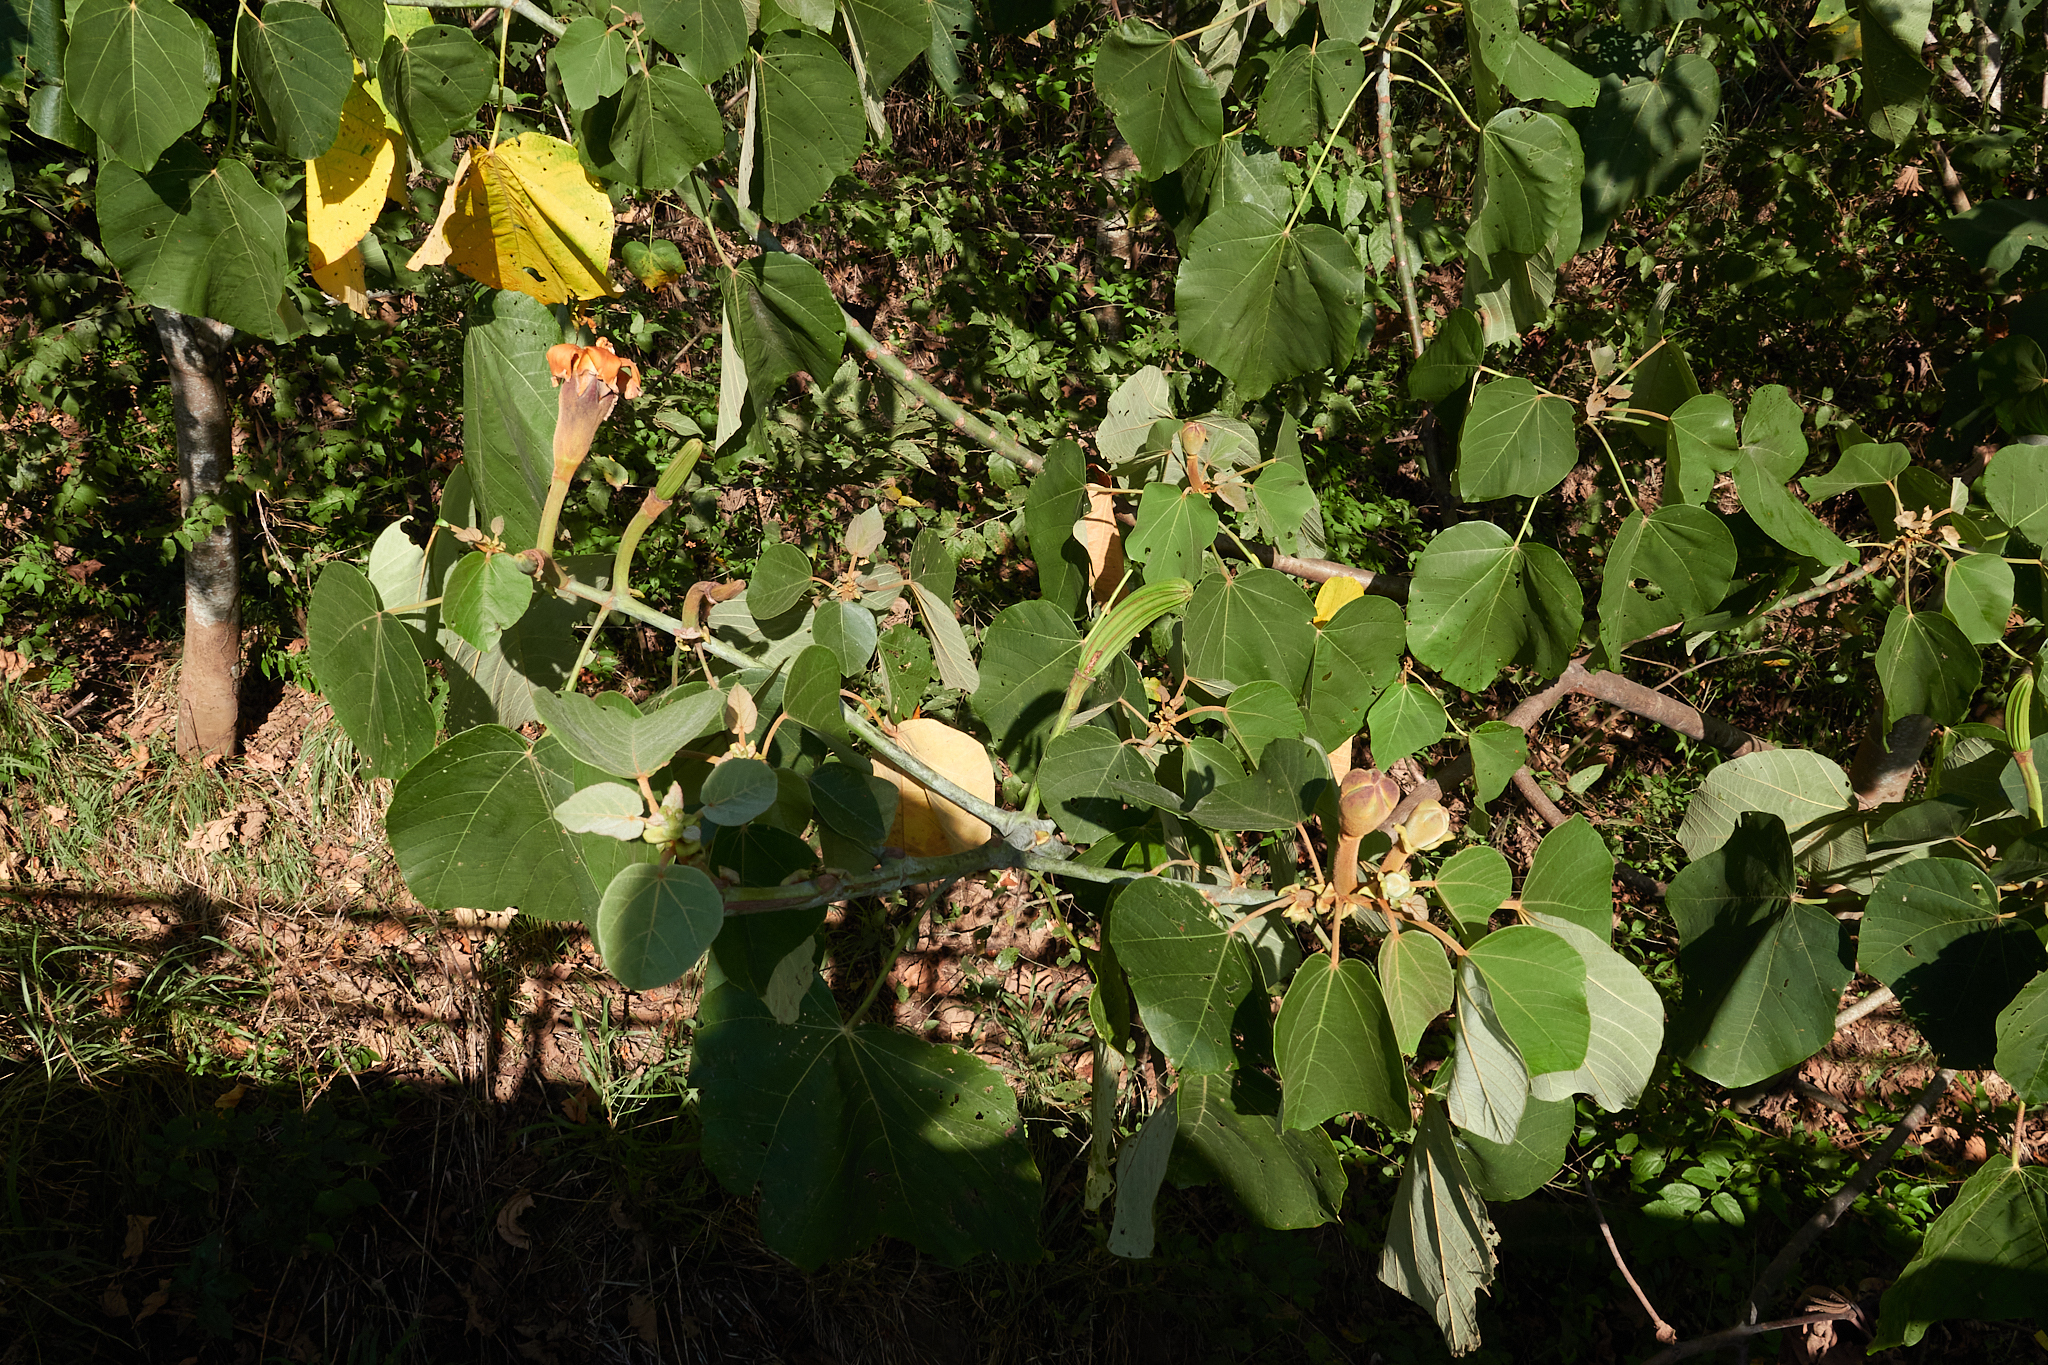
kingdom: Plantae
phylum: Tracheophyta
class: Magnoliopsida
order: Malvales
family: Malvaceae
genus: Ochroma
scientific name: Ochroma pyramidale
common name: Balsa
